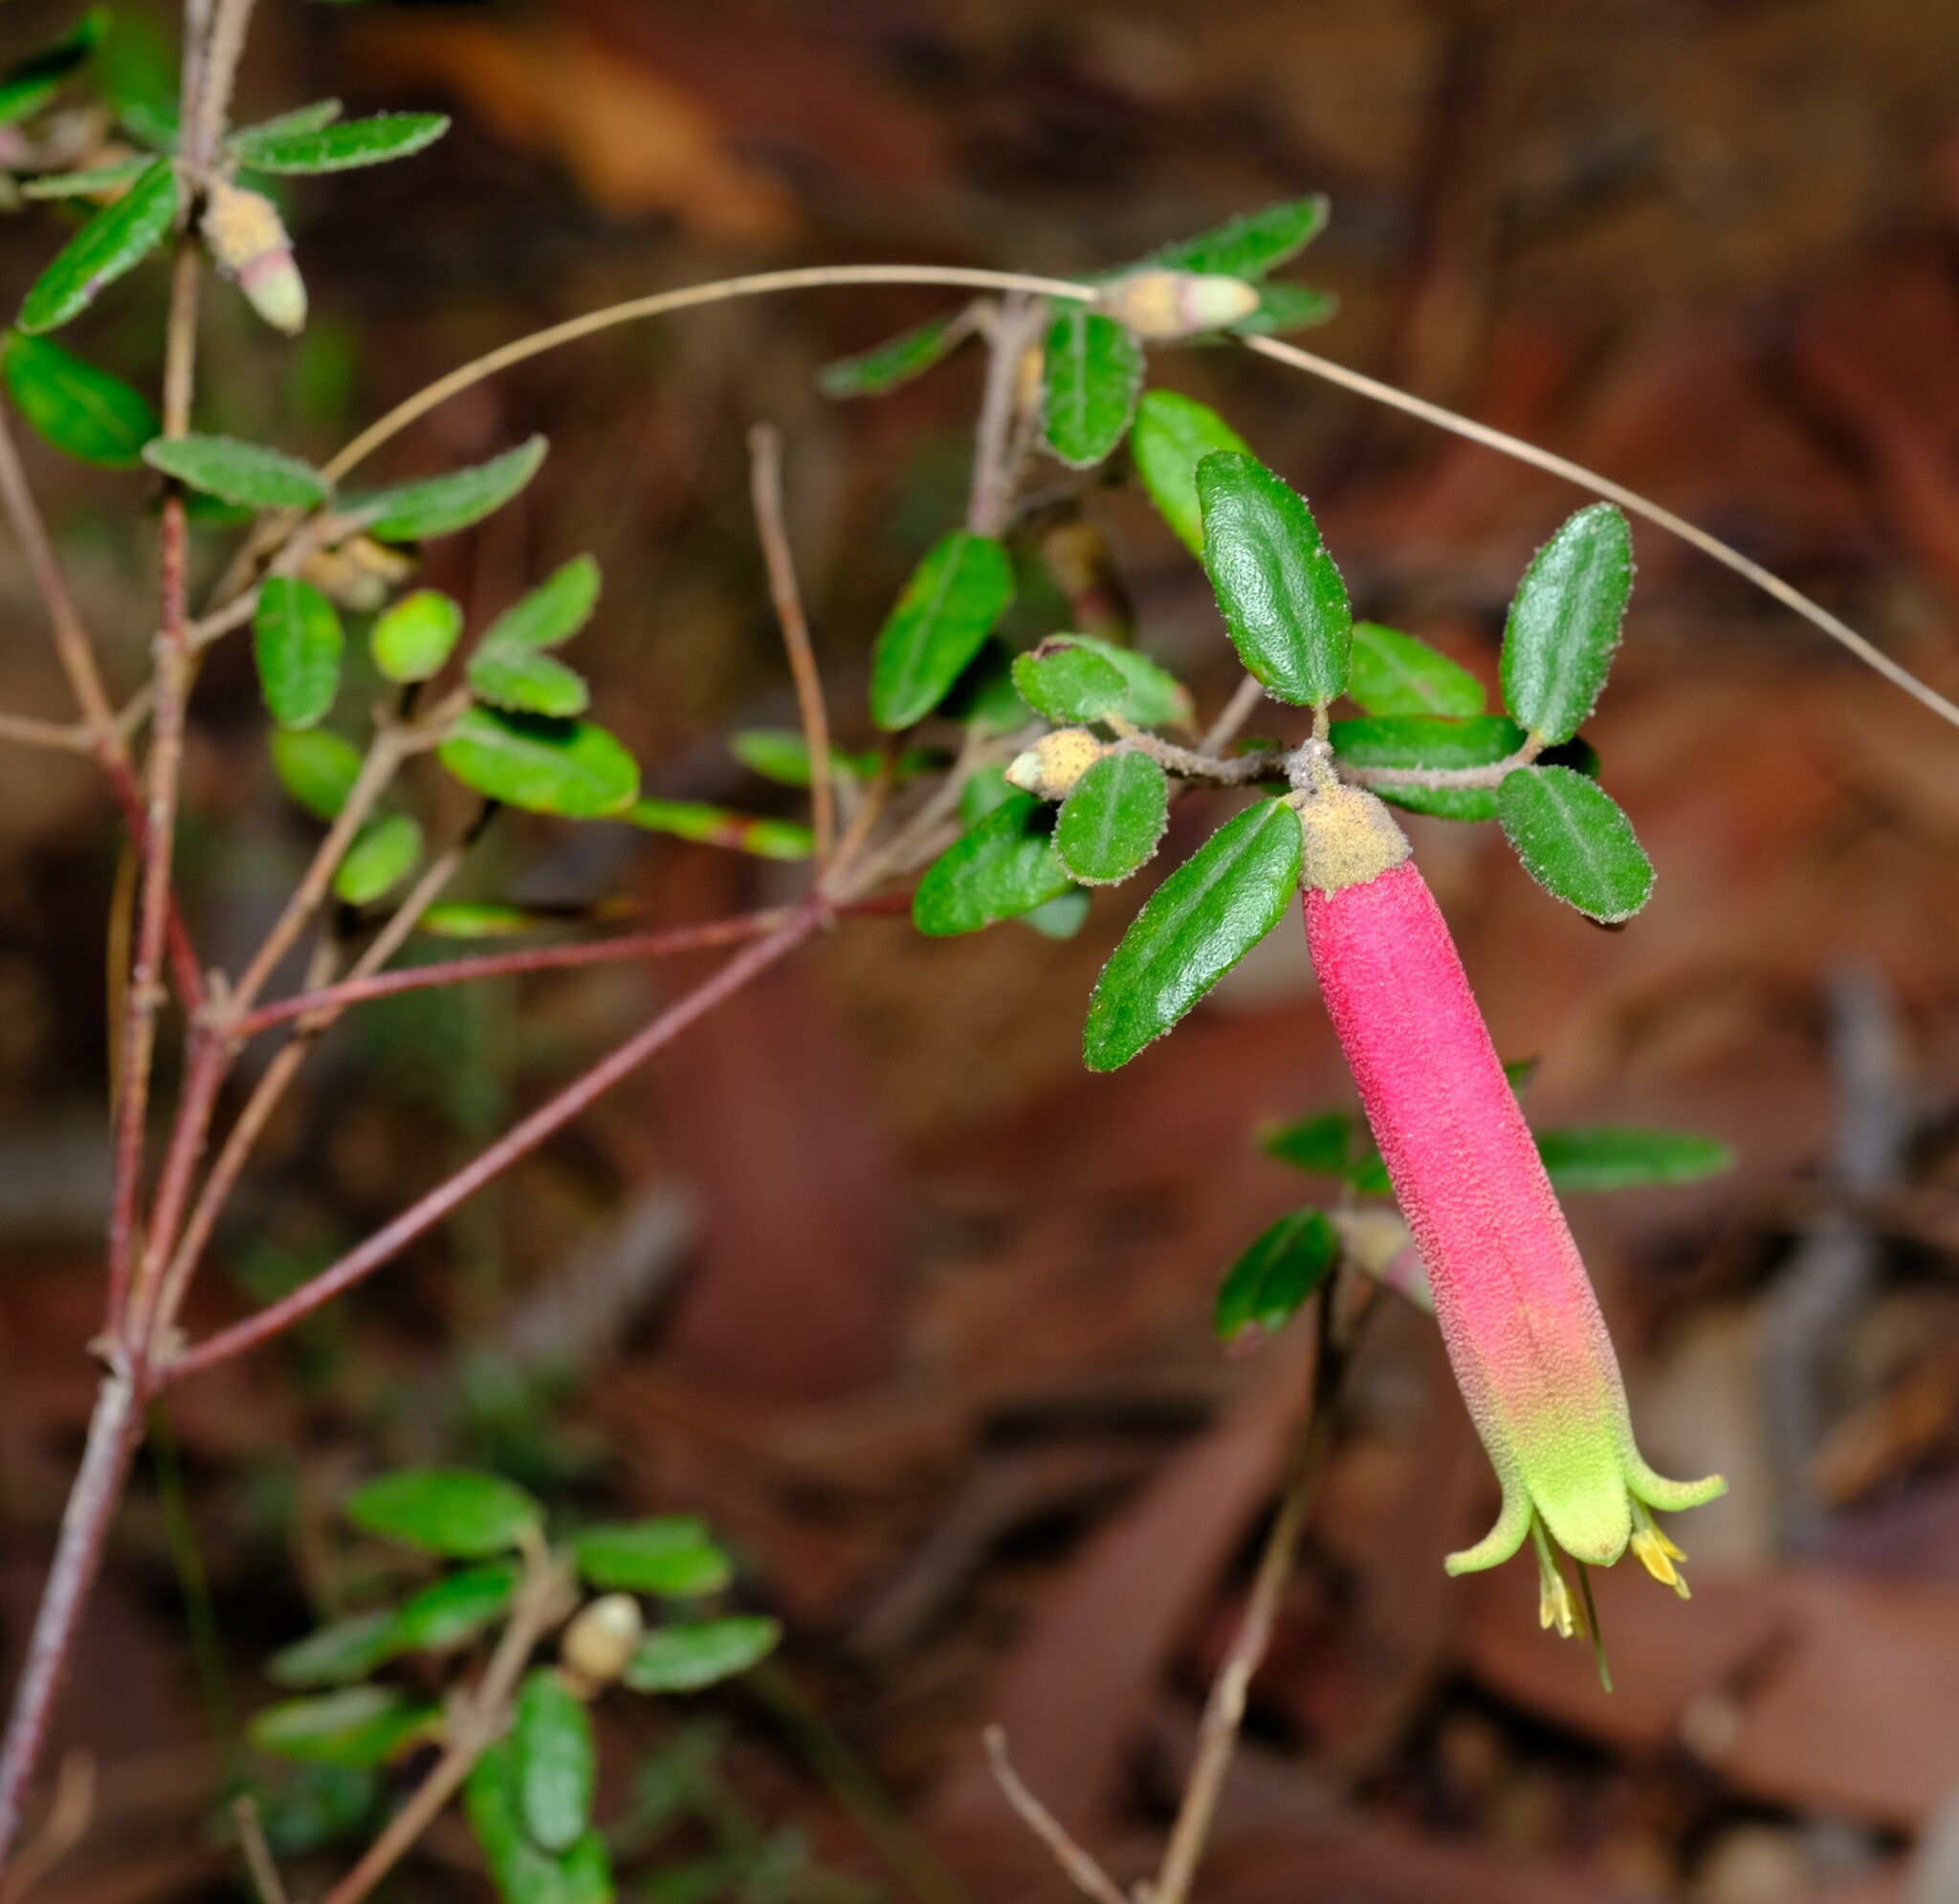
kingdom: Plantae
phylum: Tracheophyta
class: Magnoliopsida
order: Sapindales
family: Rutaceae
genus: Correa
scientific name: Correa reflexa
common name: Common correa
